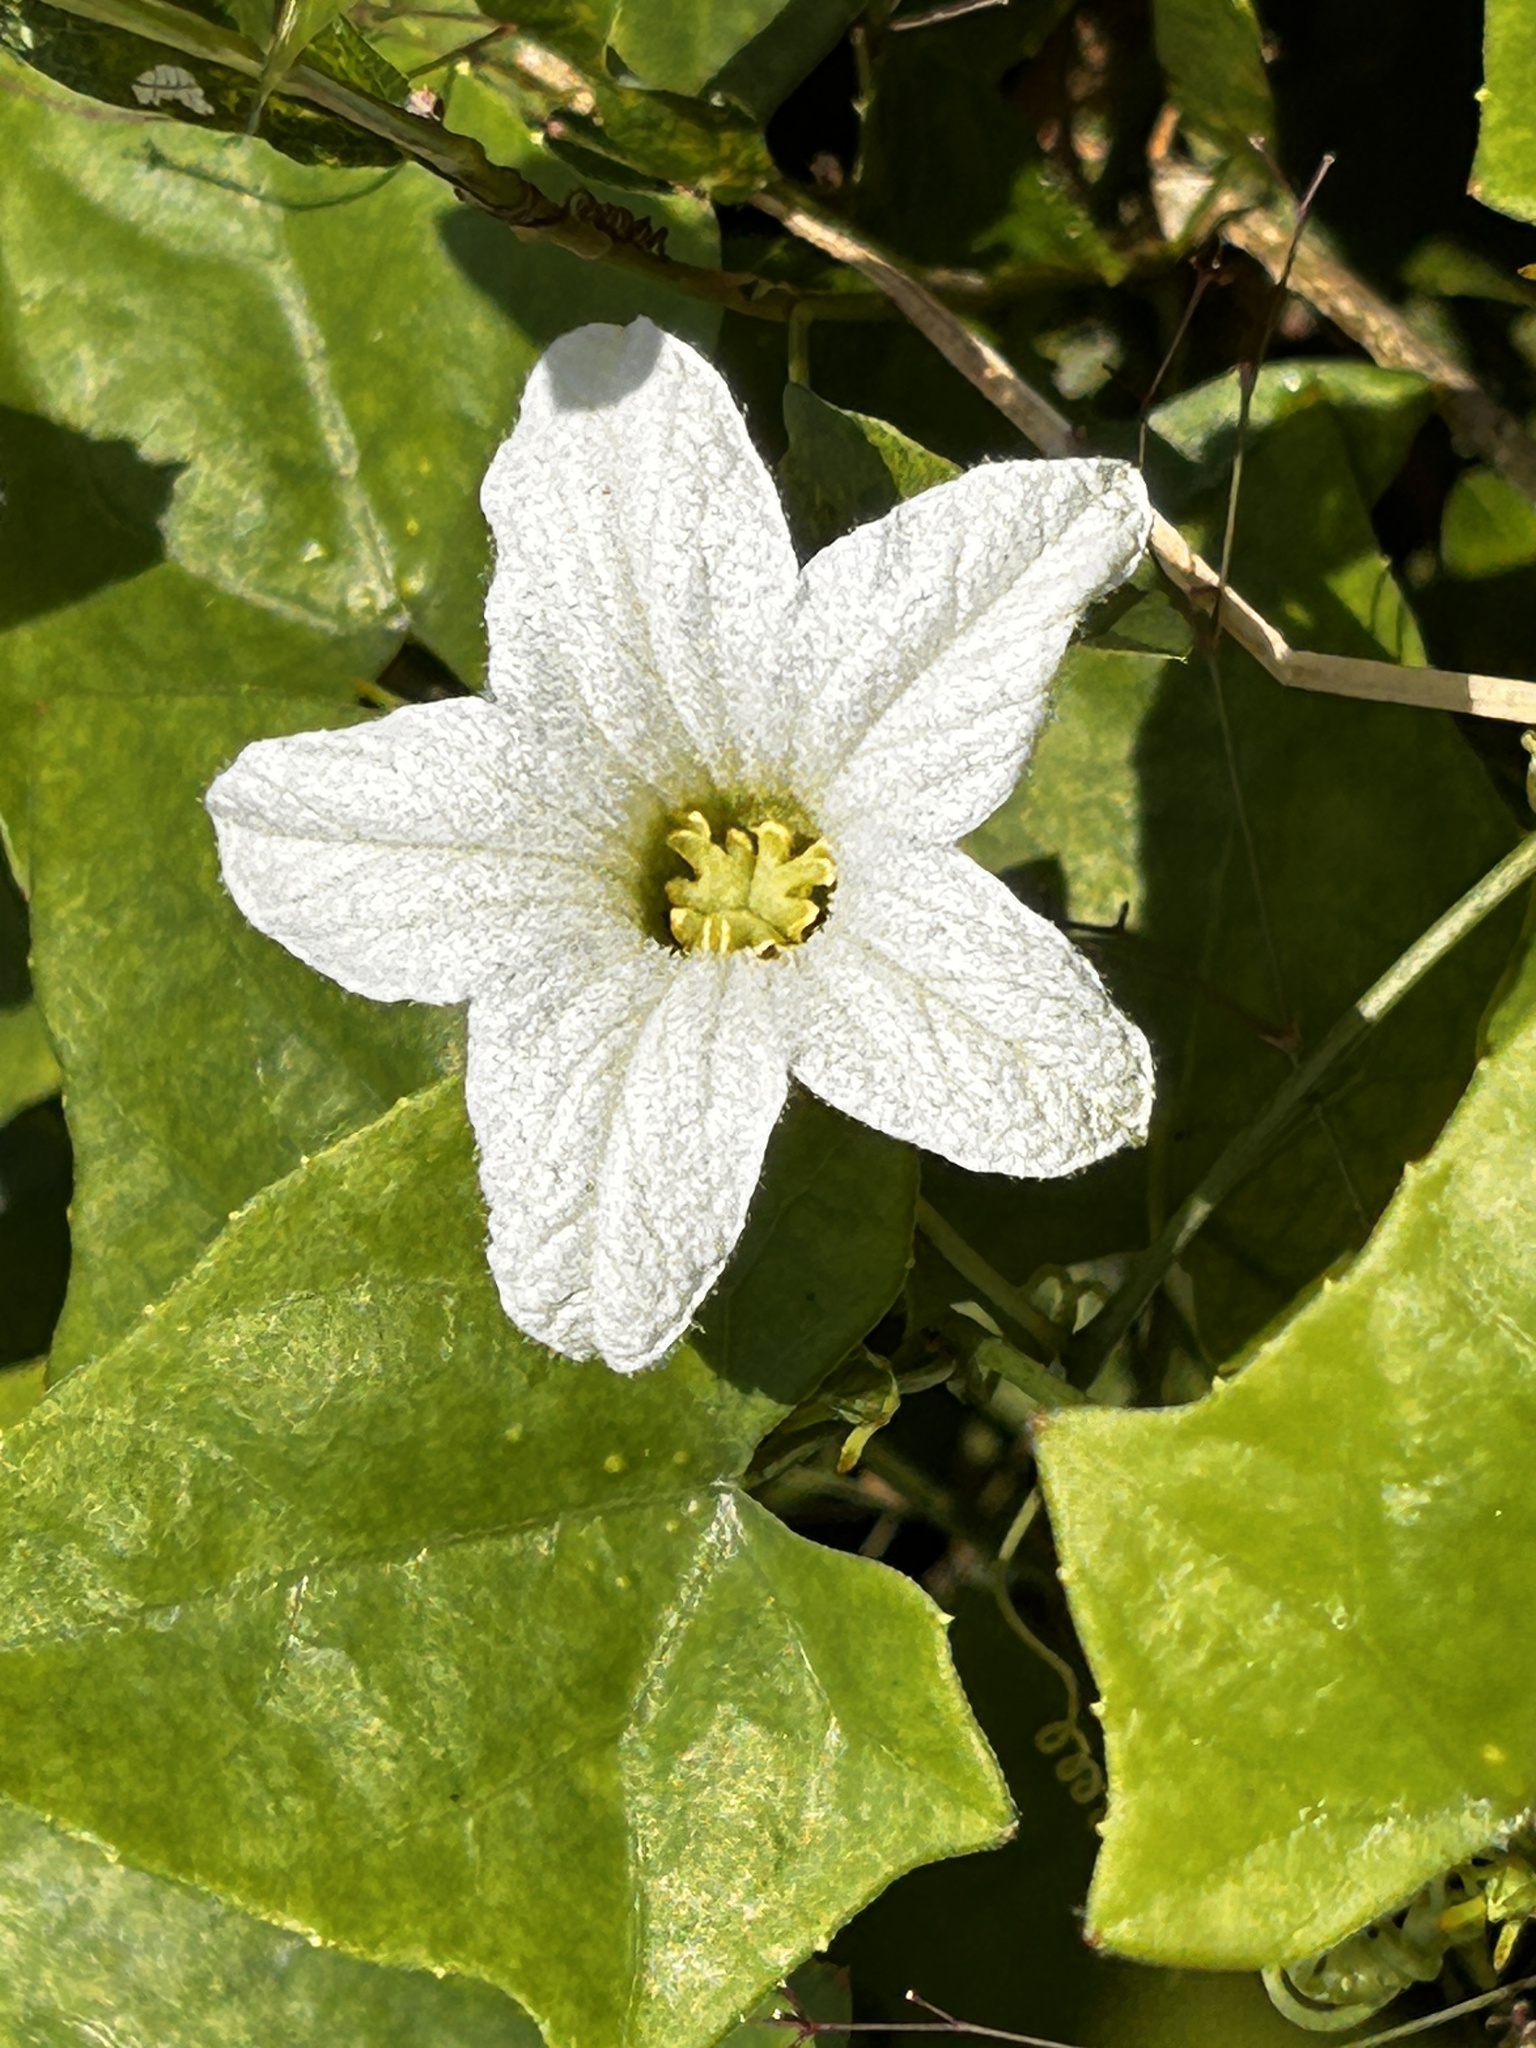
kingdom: Plantae
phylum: Tracheophyta
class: Magnoliopsida
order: Cucurbitales
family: Cucurbitaceae
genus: Coccinia
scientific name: Coccinia grandis
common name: Ivy gourd
